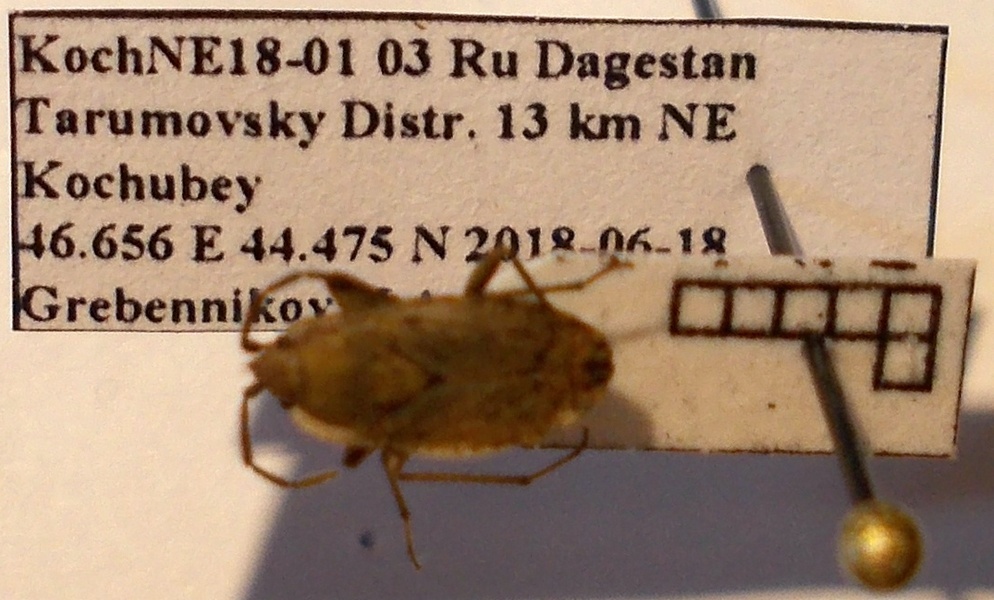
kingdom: Animalia
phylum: Arthropoda
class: Insecta
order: Hemiptera
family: Rhyparochromidae
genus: Emblethis
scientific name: Emblethis dilaticollis
